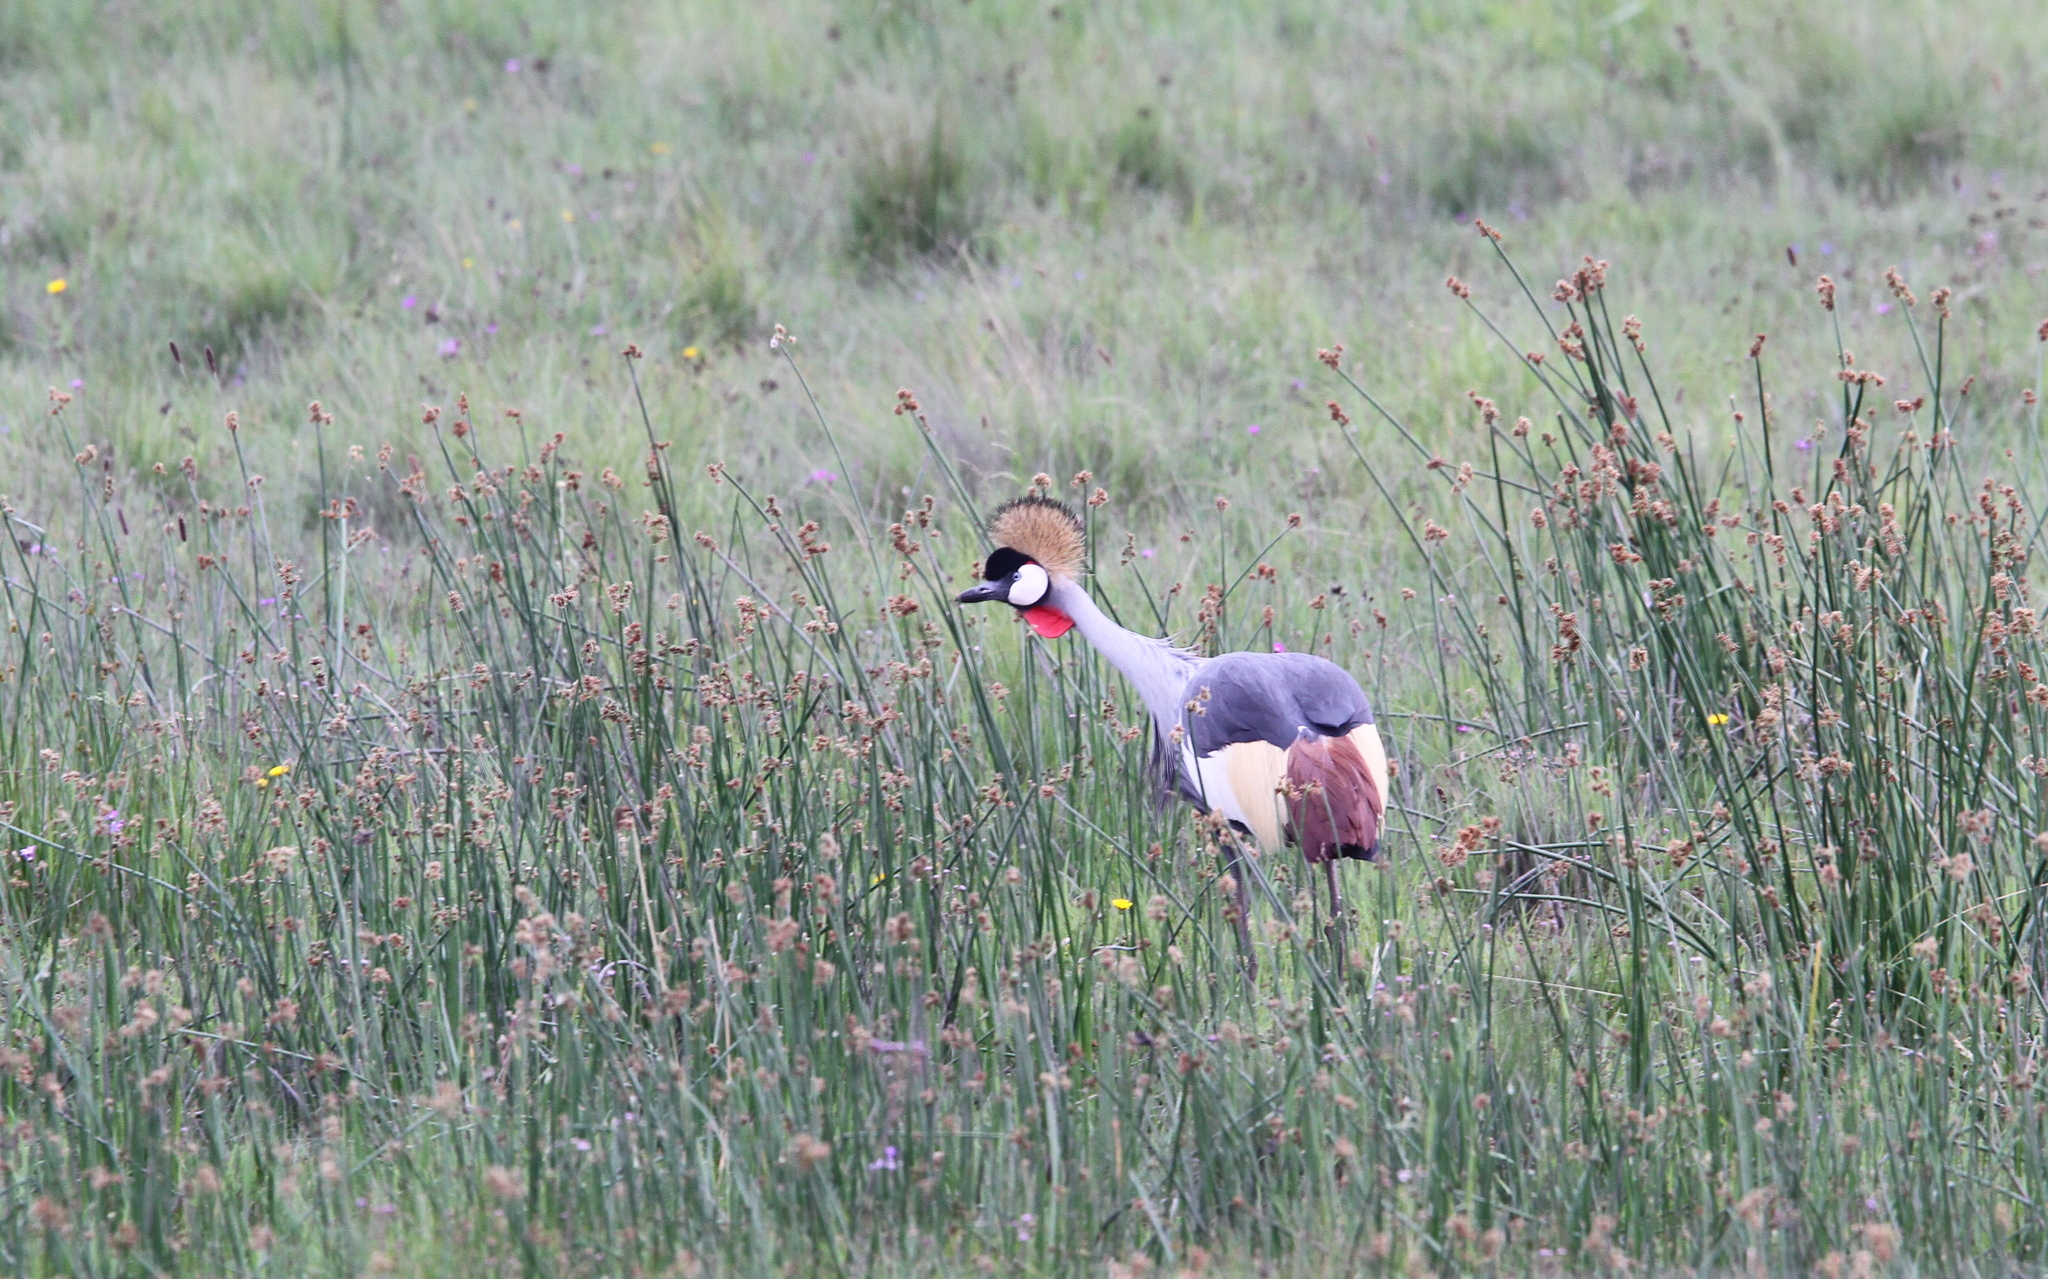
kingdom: Animalia
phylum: Chordata
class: Aves
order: Gruiformes
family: Gruidae
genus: Balearica
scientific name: Balearica regulorum
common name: Grey crowned crane
